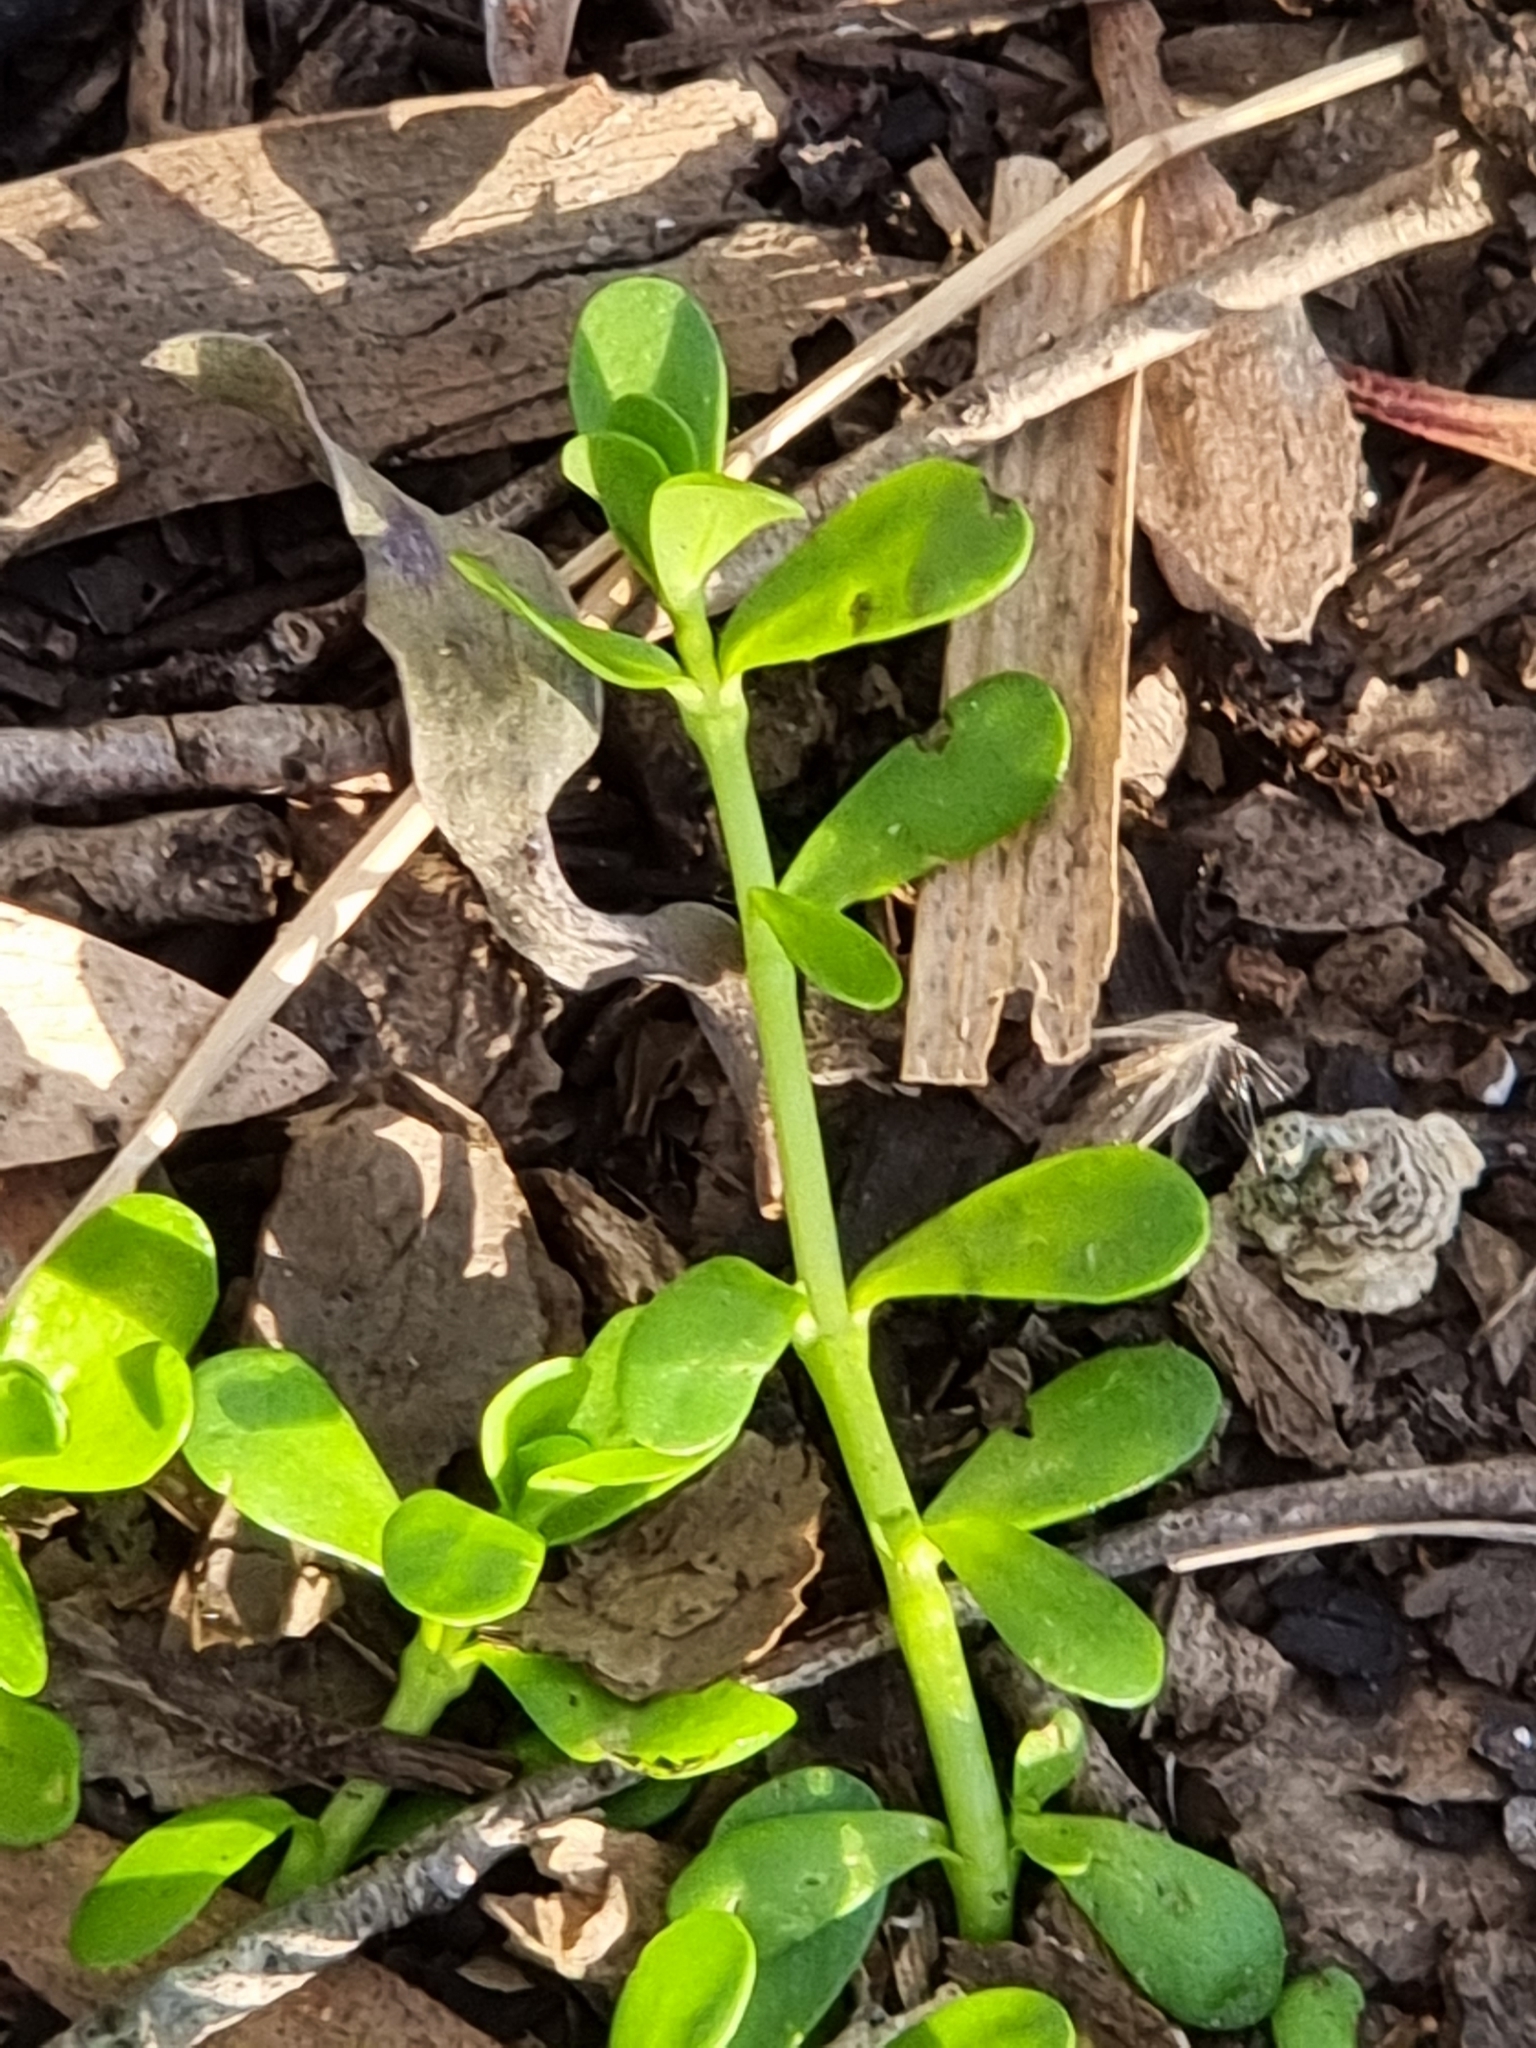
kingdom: Plantae
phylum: Tracheophyta
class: Magnoliopsida
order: Lamiales
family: Plantaginaceae
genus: Bacopa
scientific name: Bacopa monnieri
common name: Indian-pennywort
